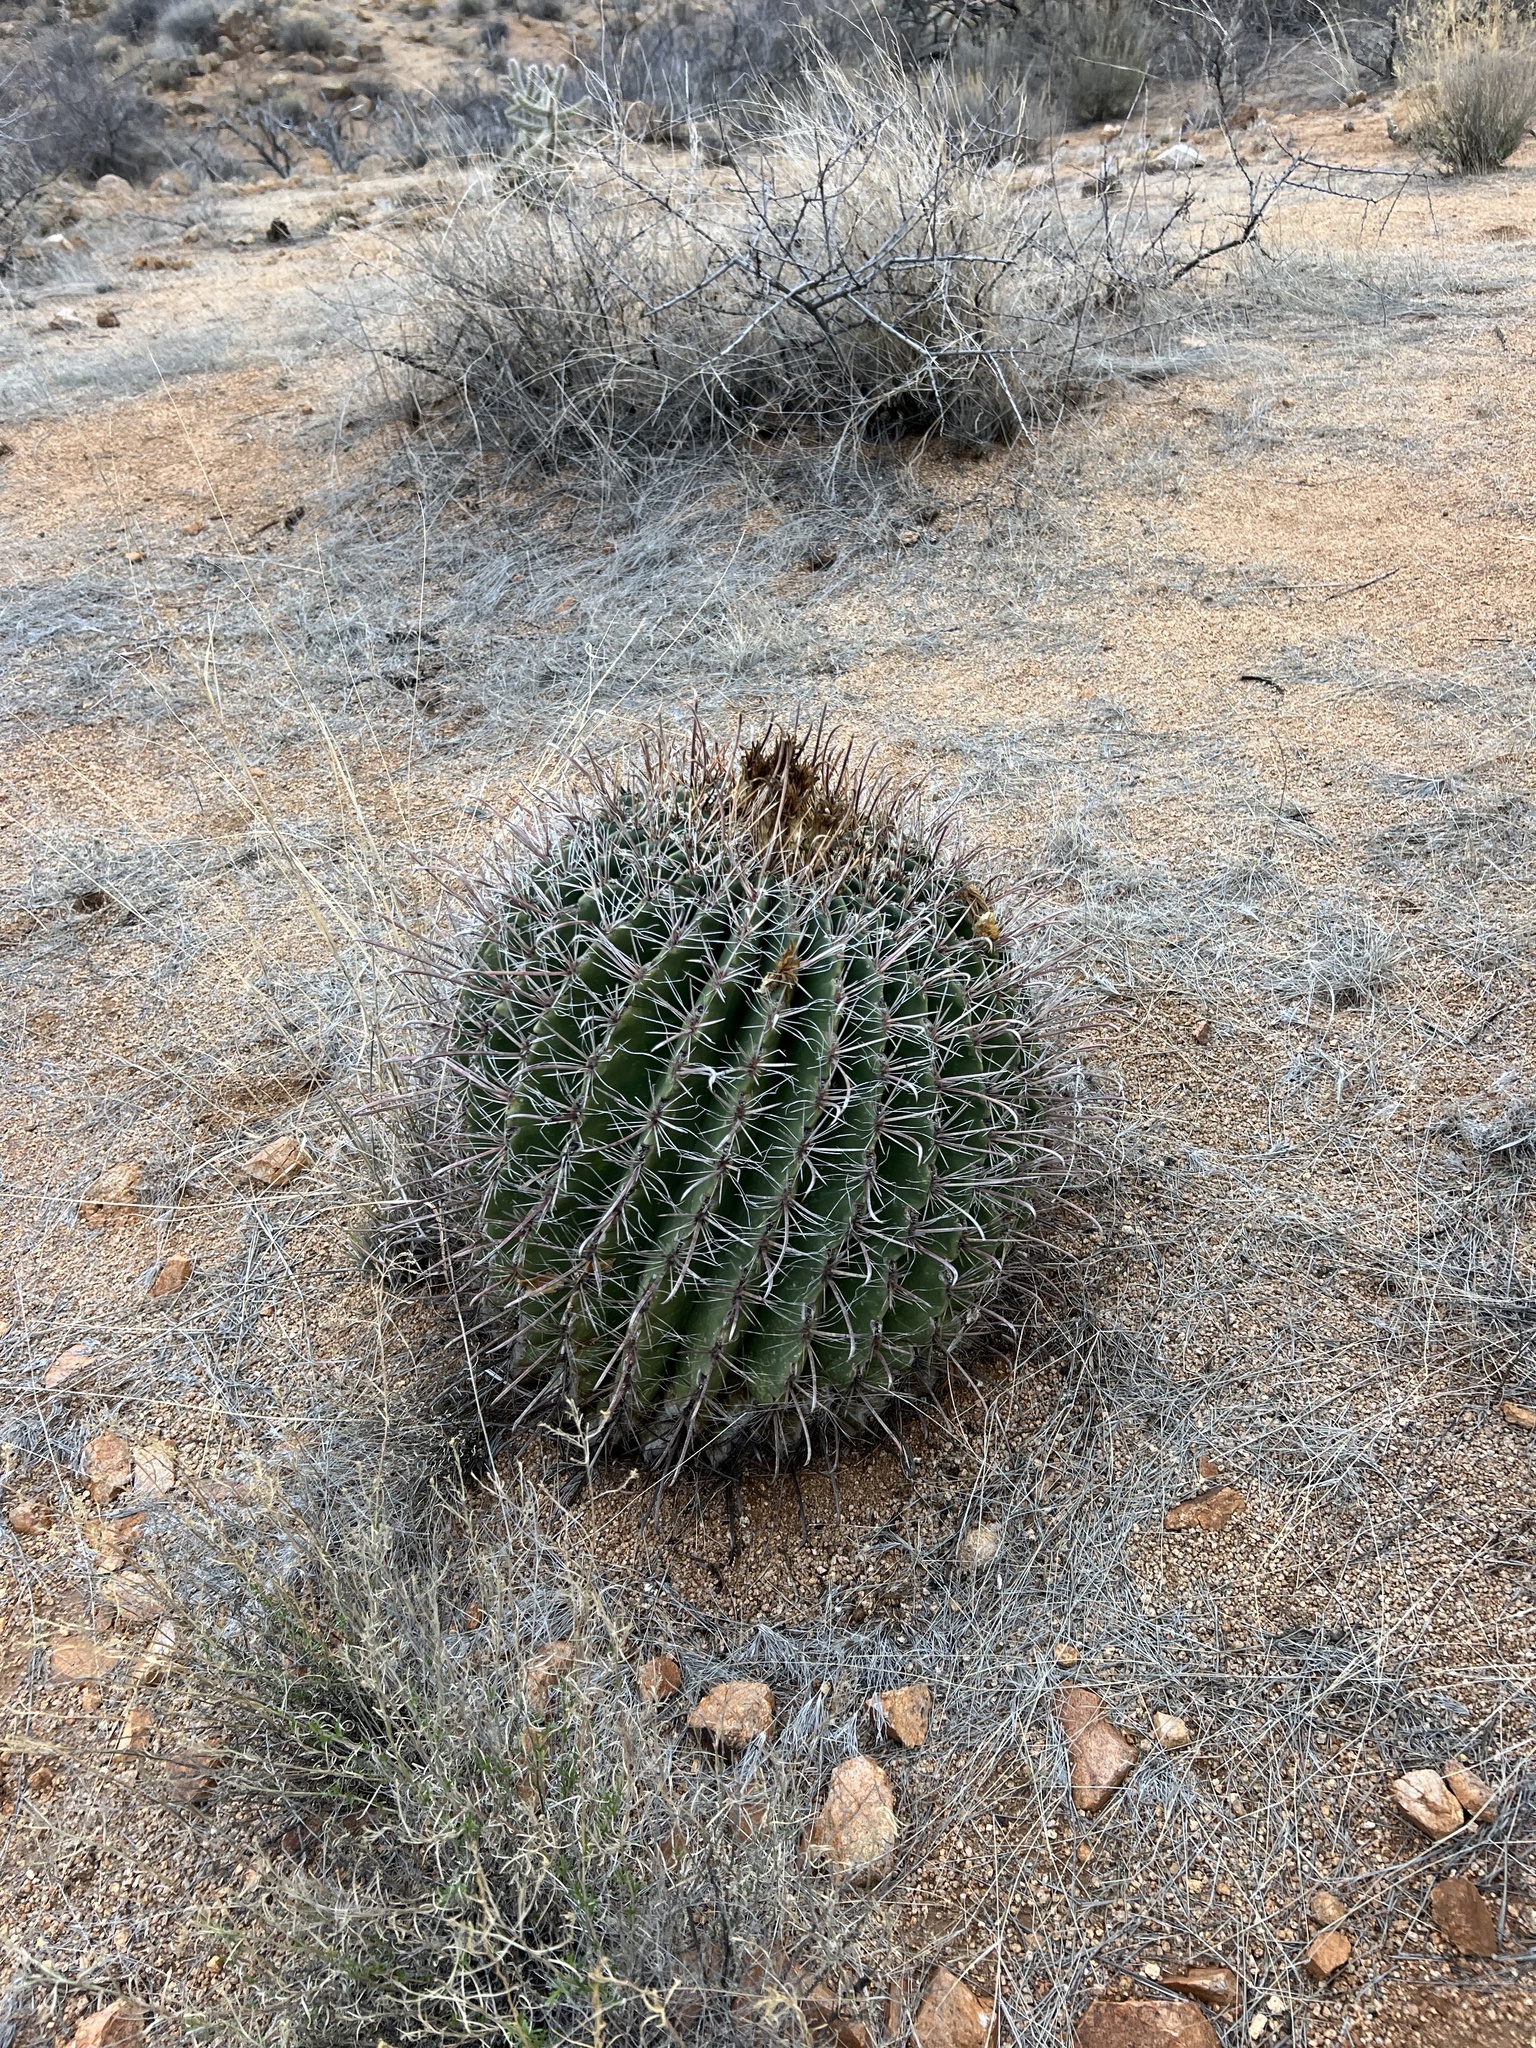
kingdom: Plantae
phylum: Tracheophyta
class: Magnoliopsida
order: Caryophyllales
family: Cactaceae
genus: Ferocactus
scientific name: Ferocactus wislizeni
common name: Candy barrel cactus
